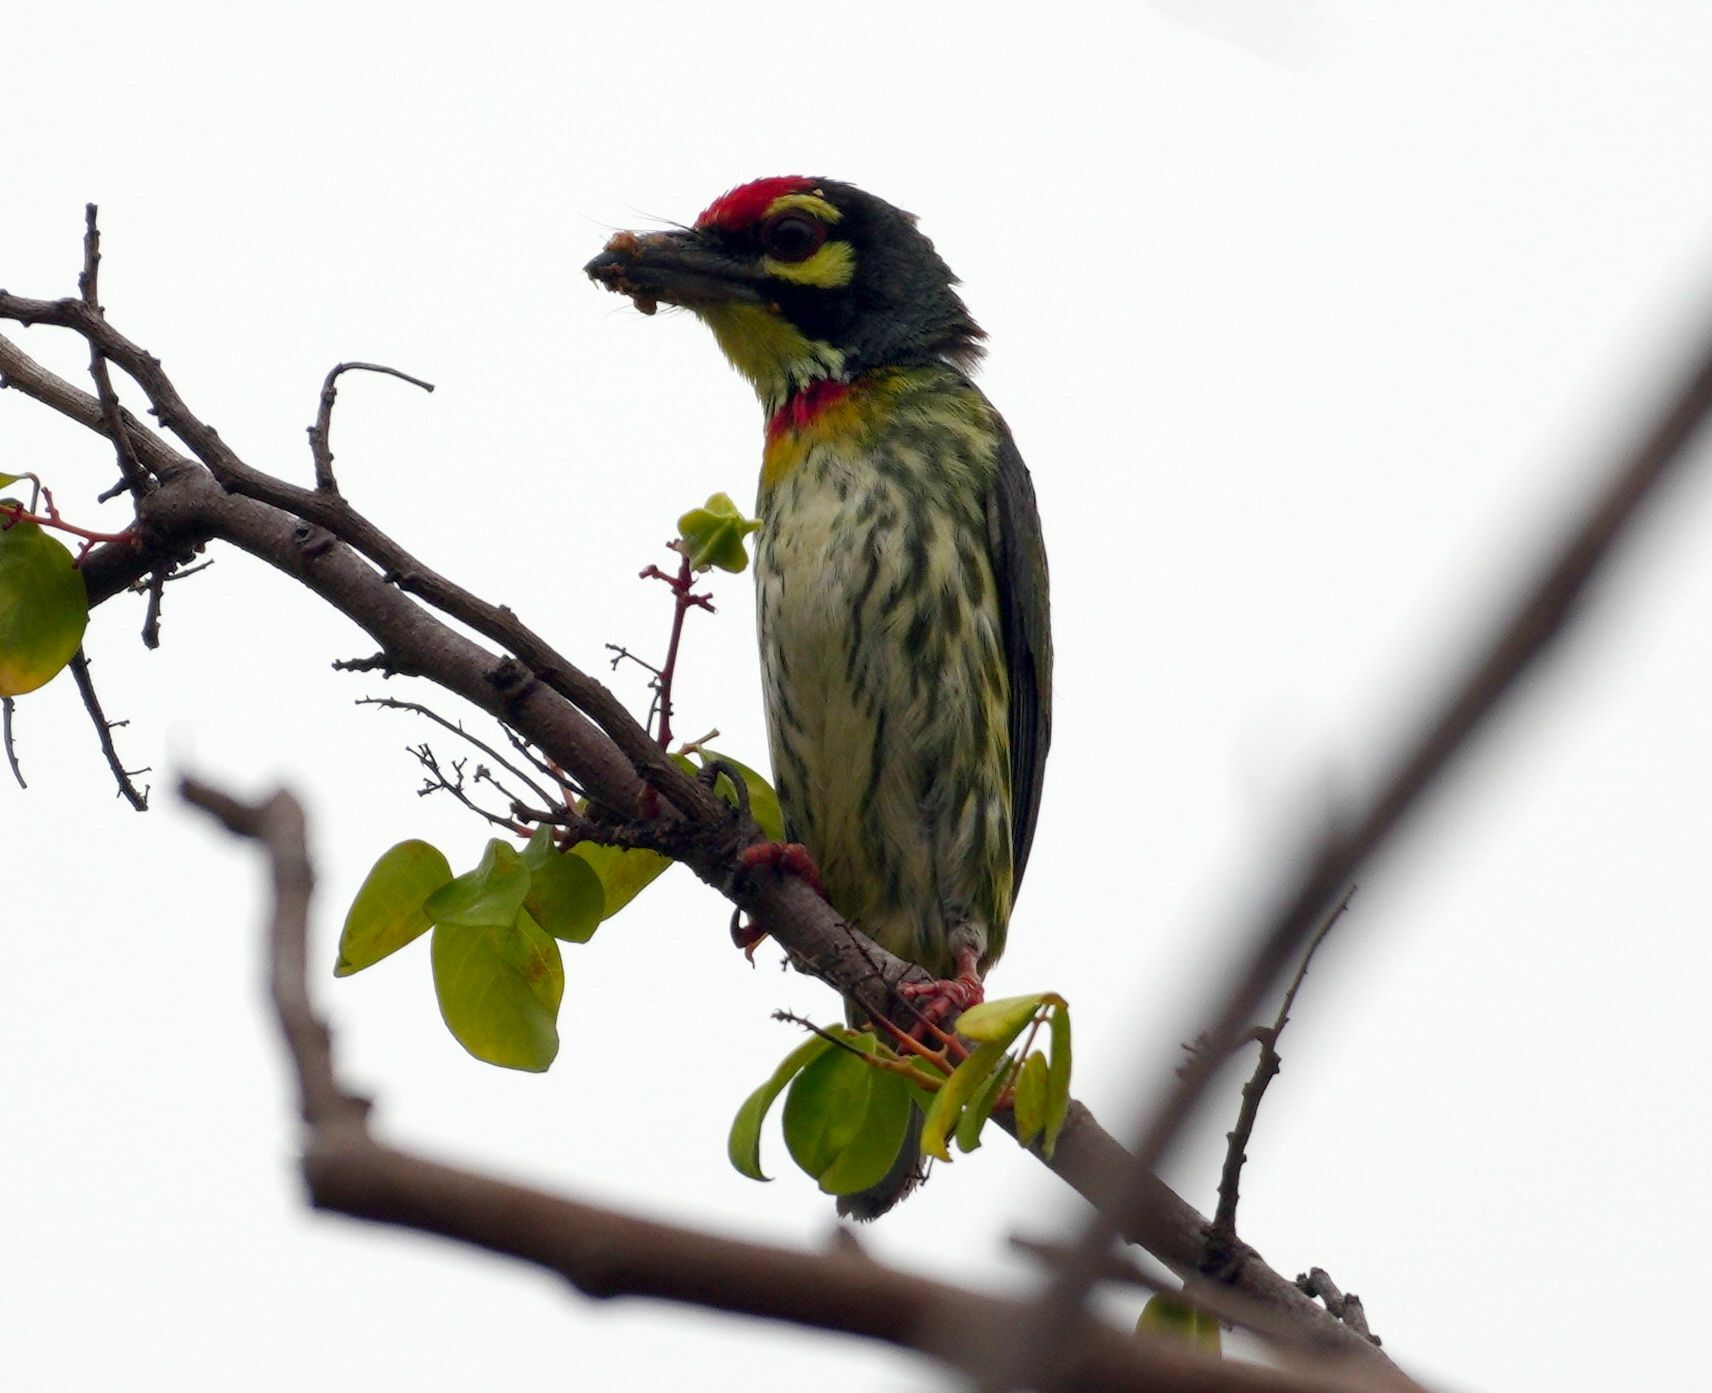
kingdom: Animalia
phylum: Chordata
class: Aves
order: Piciformes
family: Megalaimidae
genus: Psilopogon
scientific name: Psilopogon haemacephalus
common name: Coppersmith barbet
